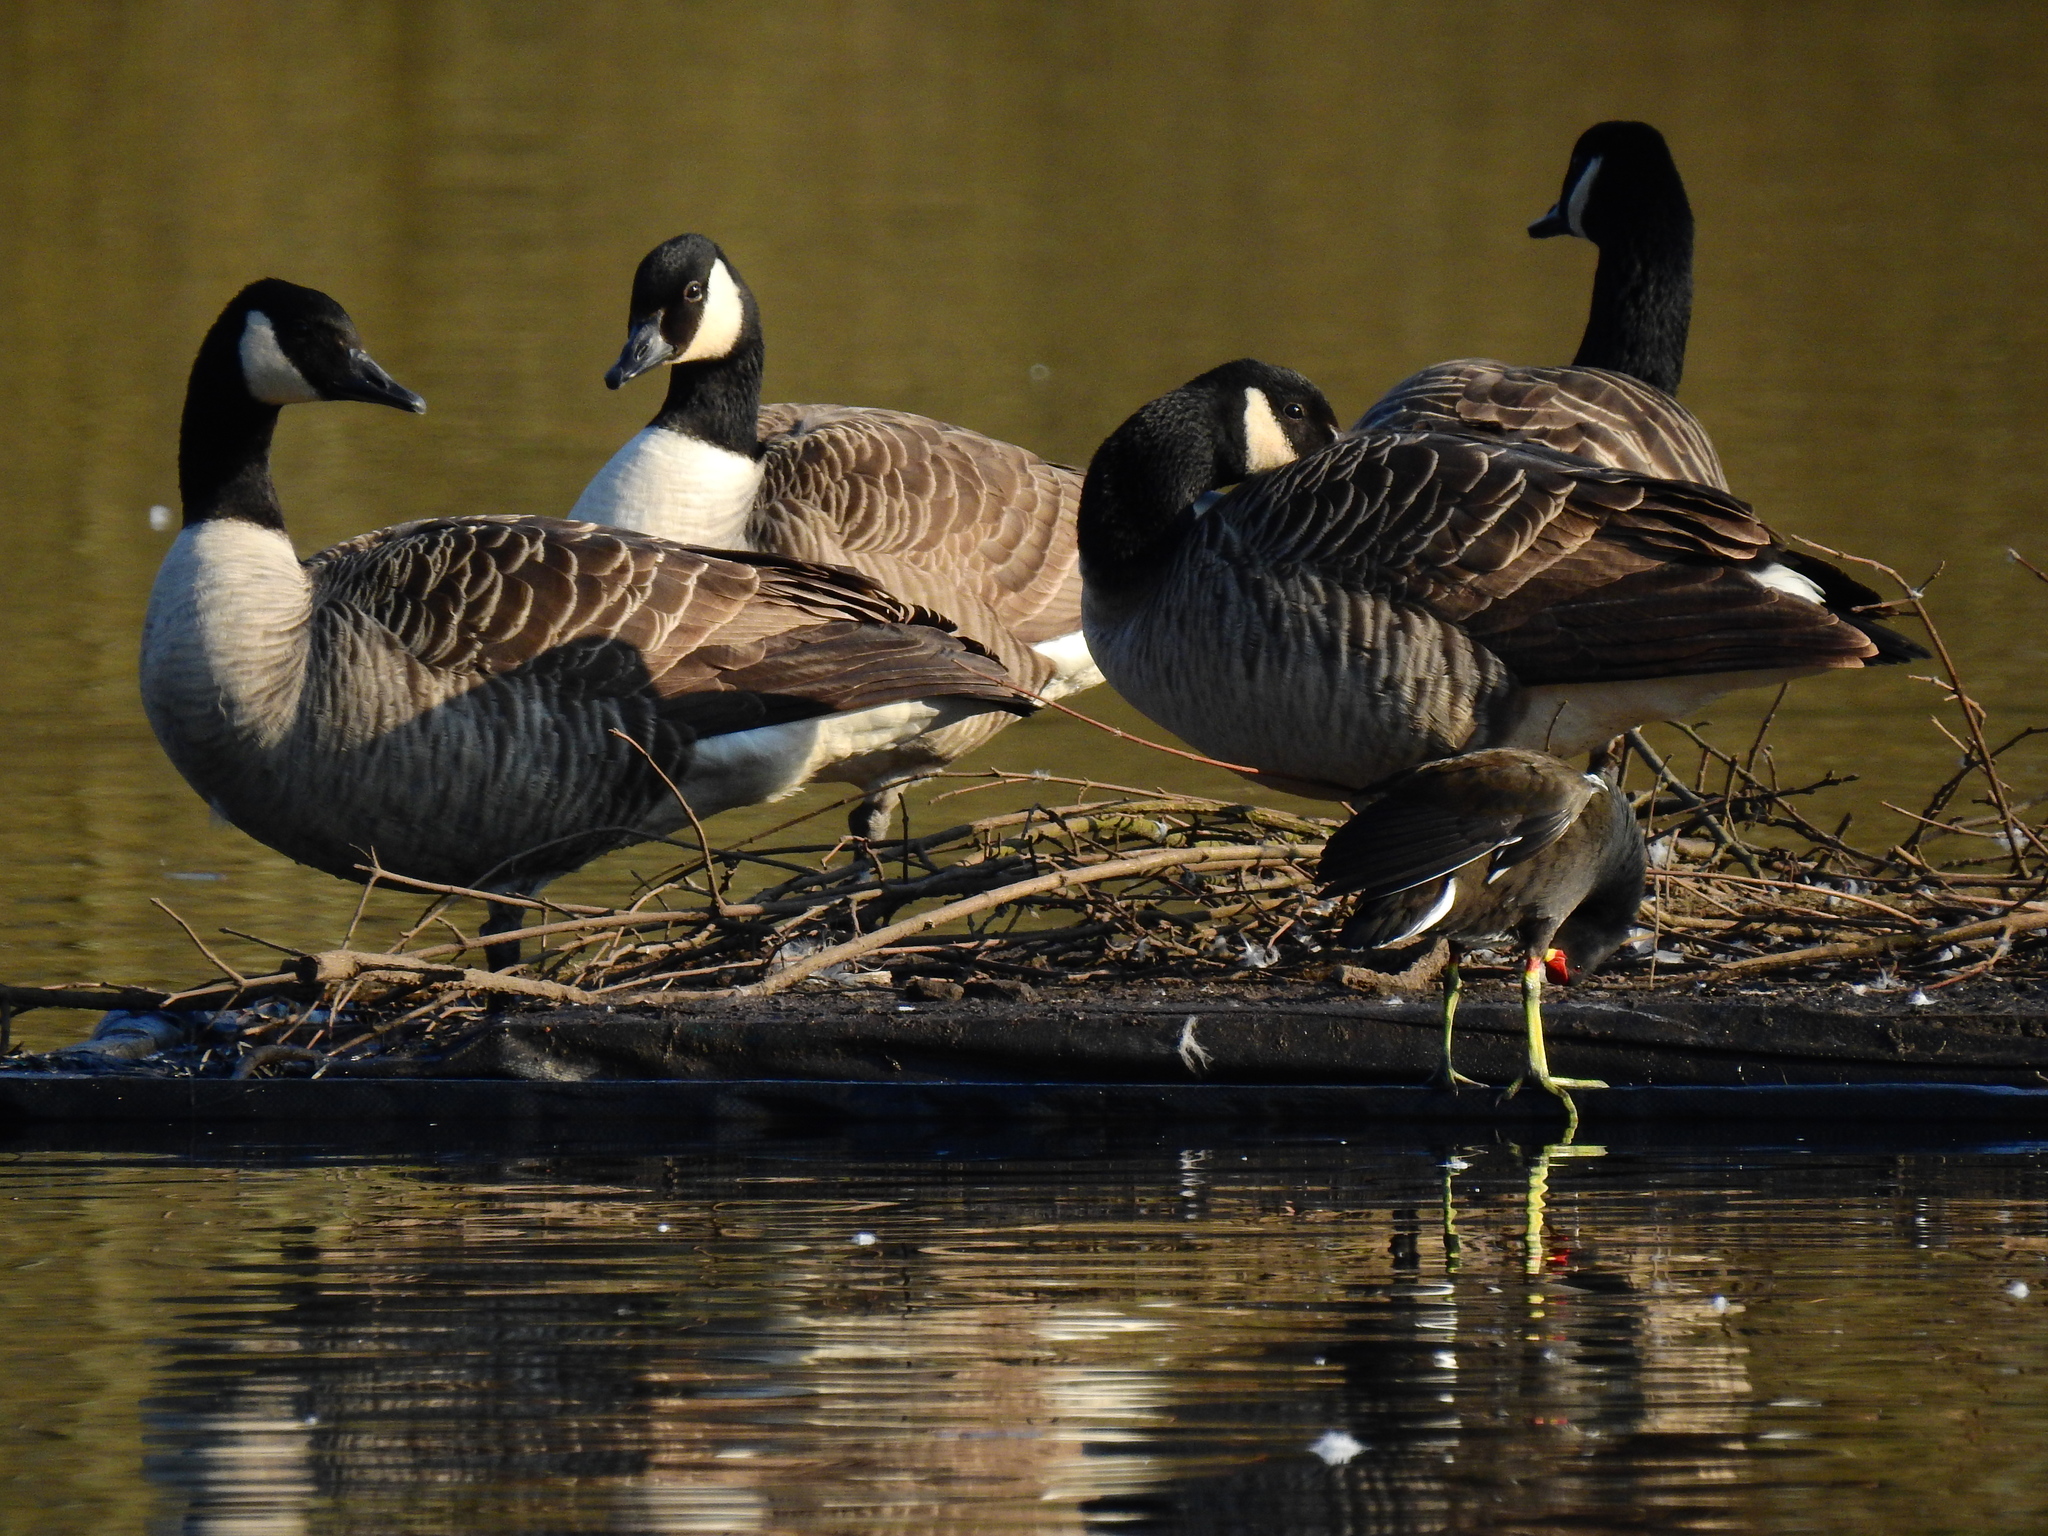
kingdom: Animalia
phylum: Chordata
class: Aves
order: Anseriformes
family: Anatidae
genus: Branta
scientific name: Branta canadensis
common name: Canada goose
